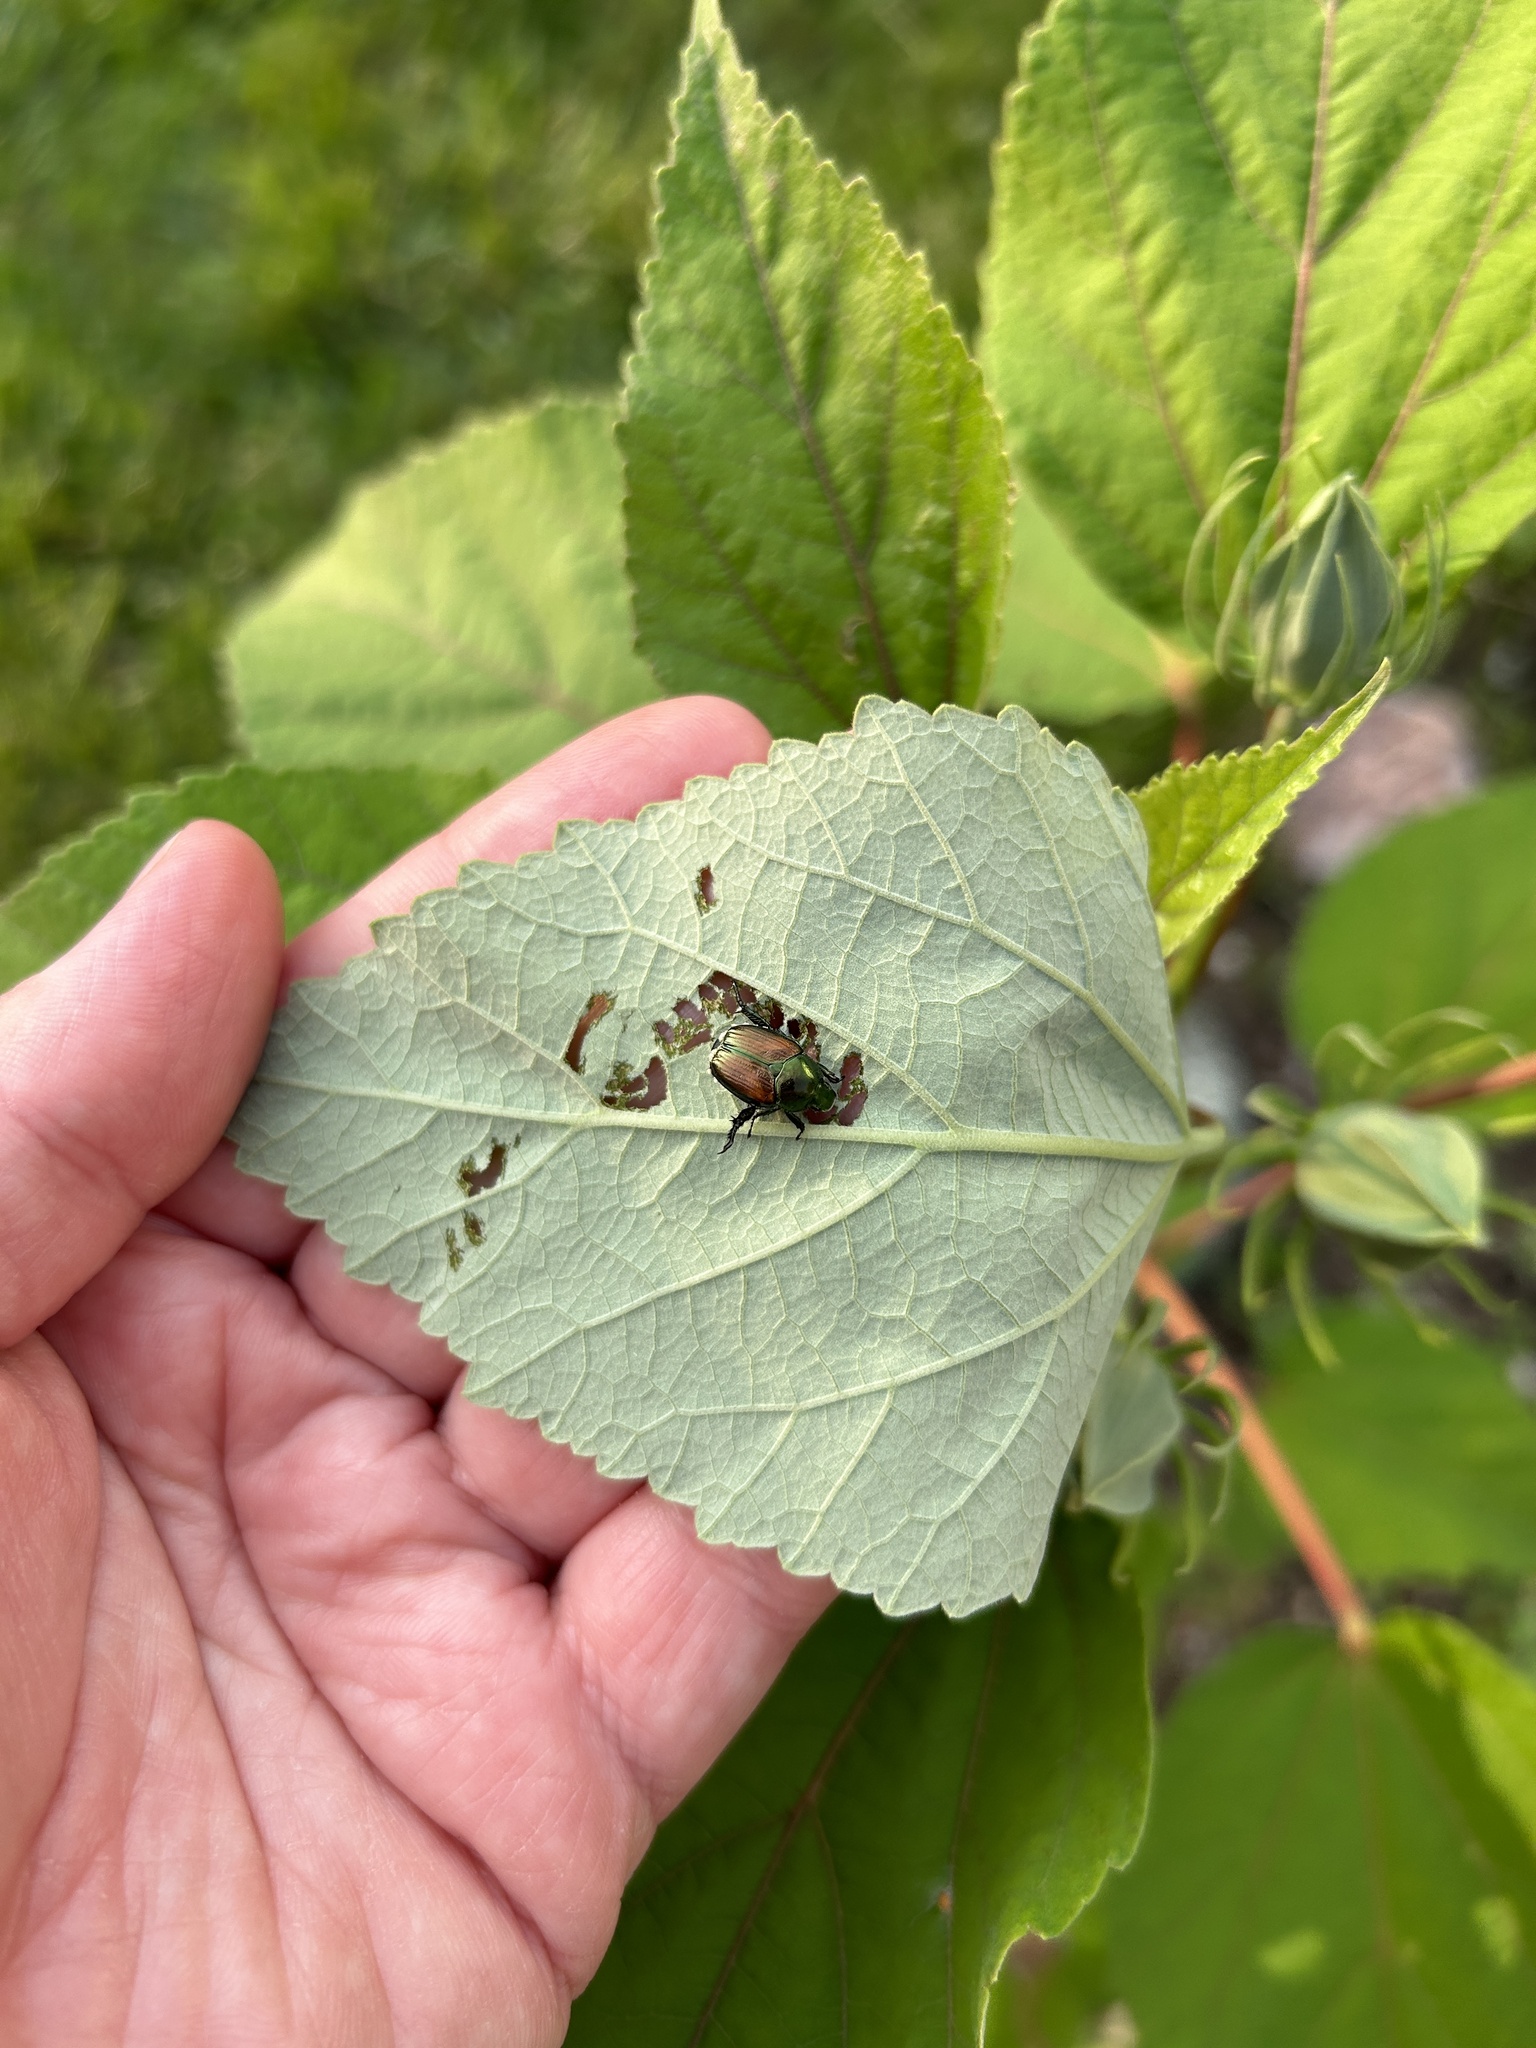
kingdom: Animalia
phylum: Arthropoda
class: Insecta
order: Coleoptera
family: Scarabaeidae
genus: Popillia
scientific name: Popillia japonica
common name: Japanese beetle
